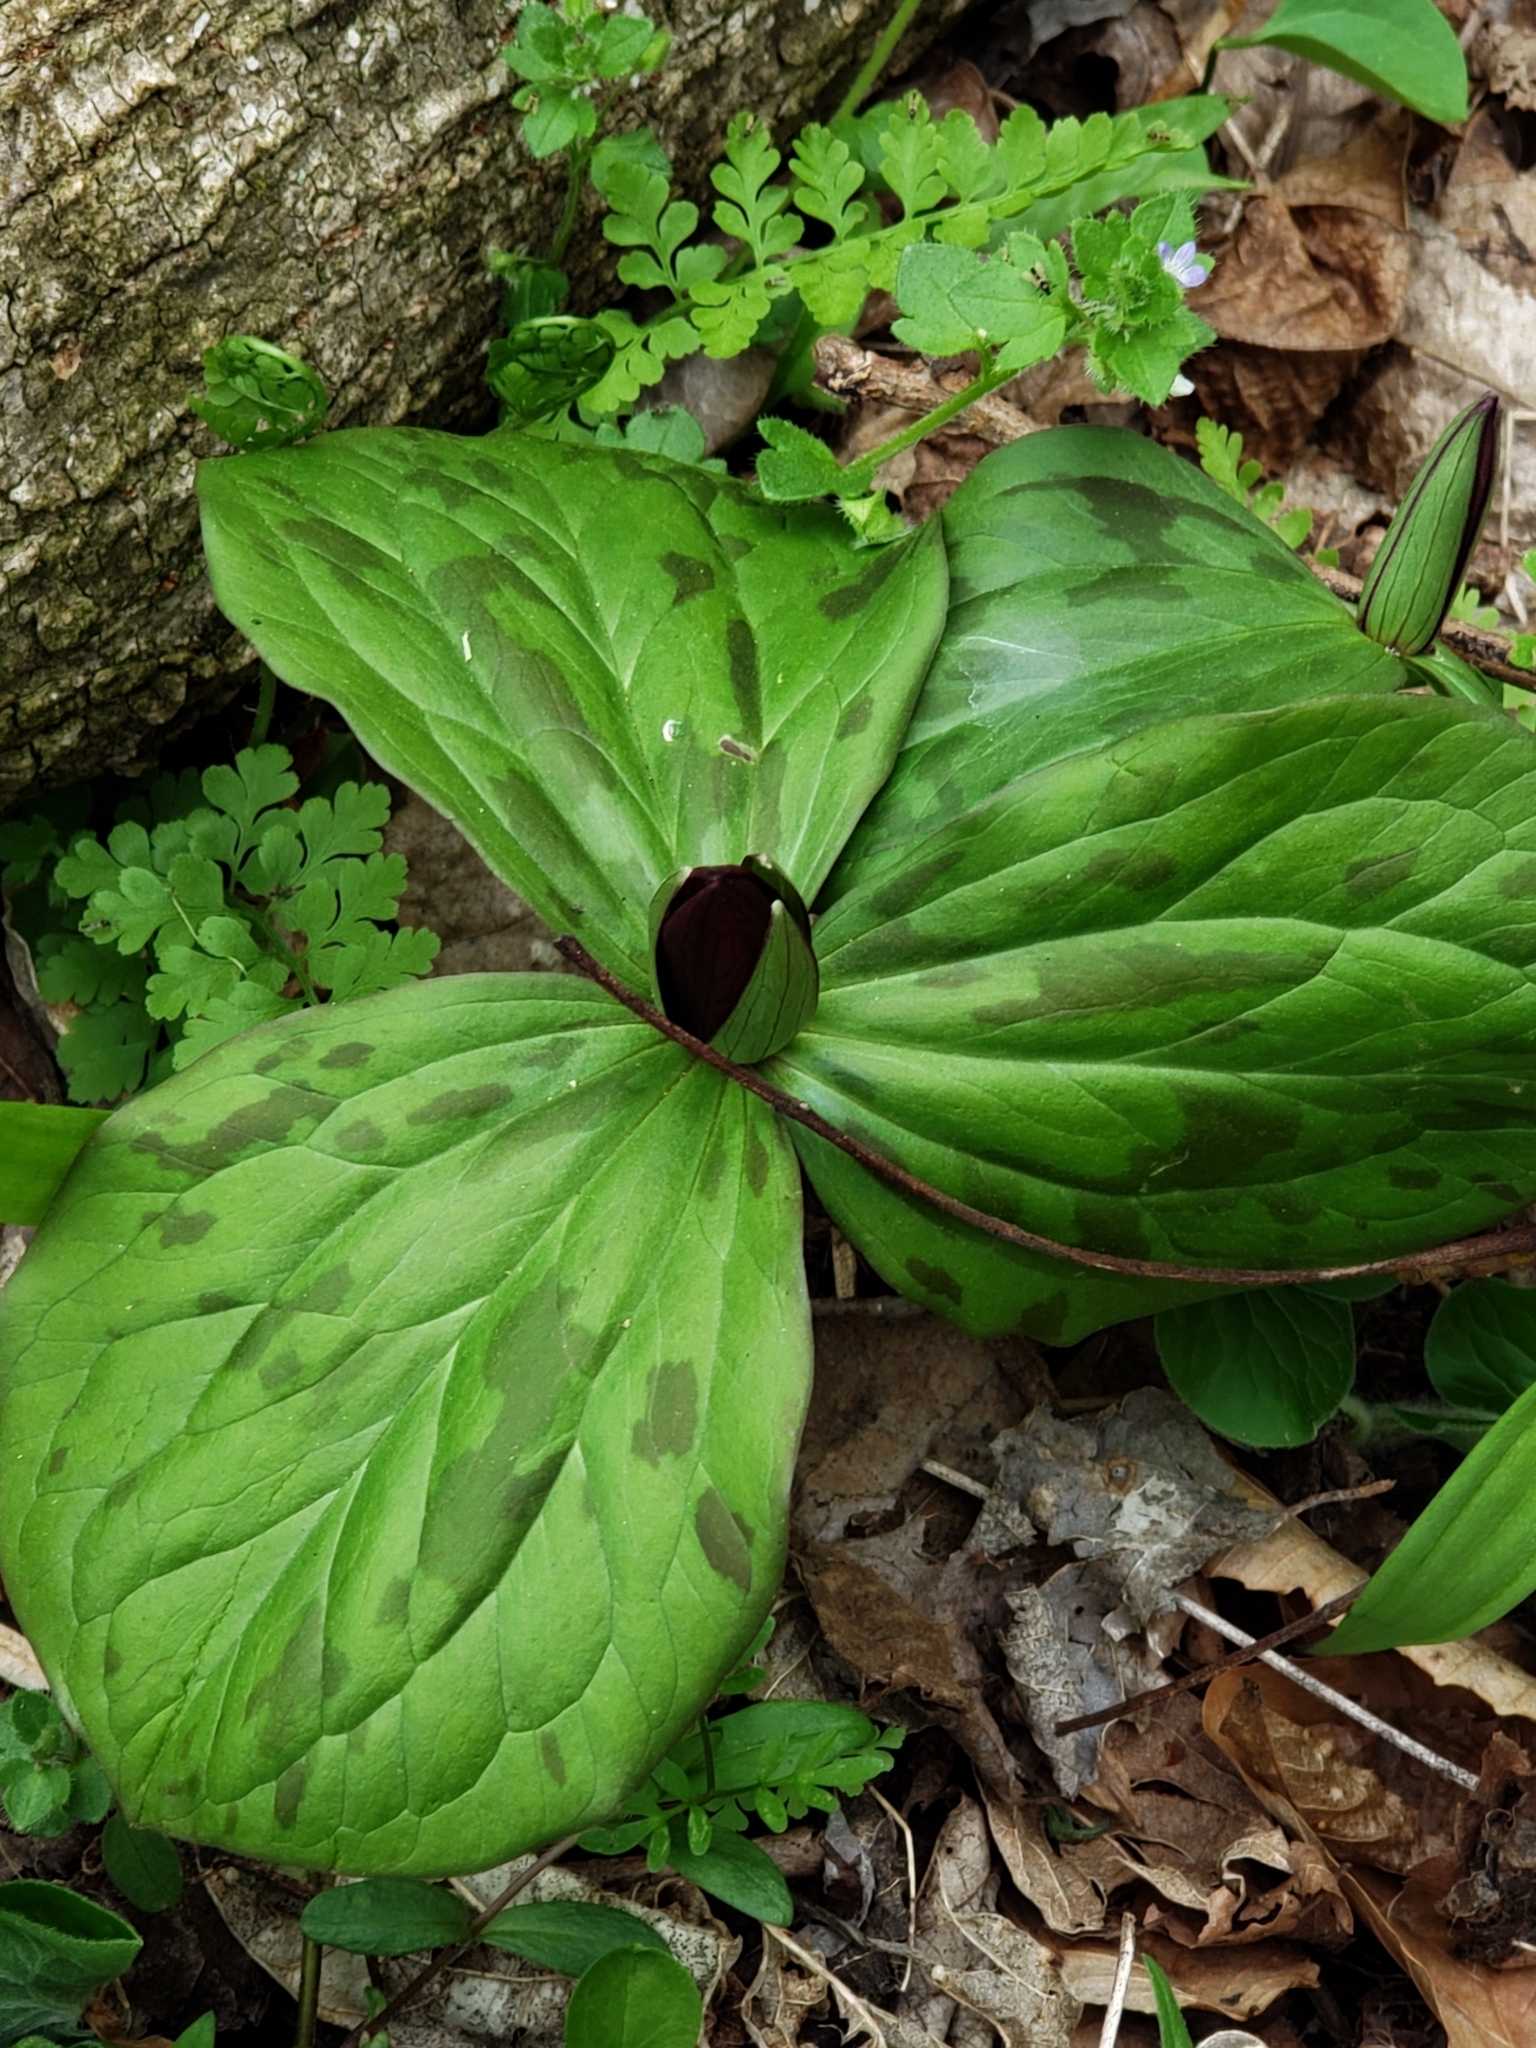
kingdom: Plantae
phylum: Tracheophyta
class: Liliopsida
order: Liliales
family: Melanthiaceae
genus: Trillium
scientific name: Trillium sessile
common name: Sessile trillium
